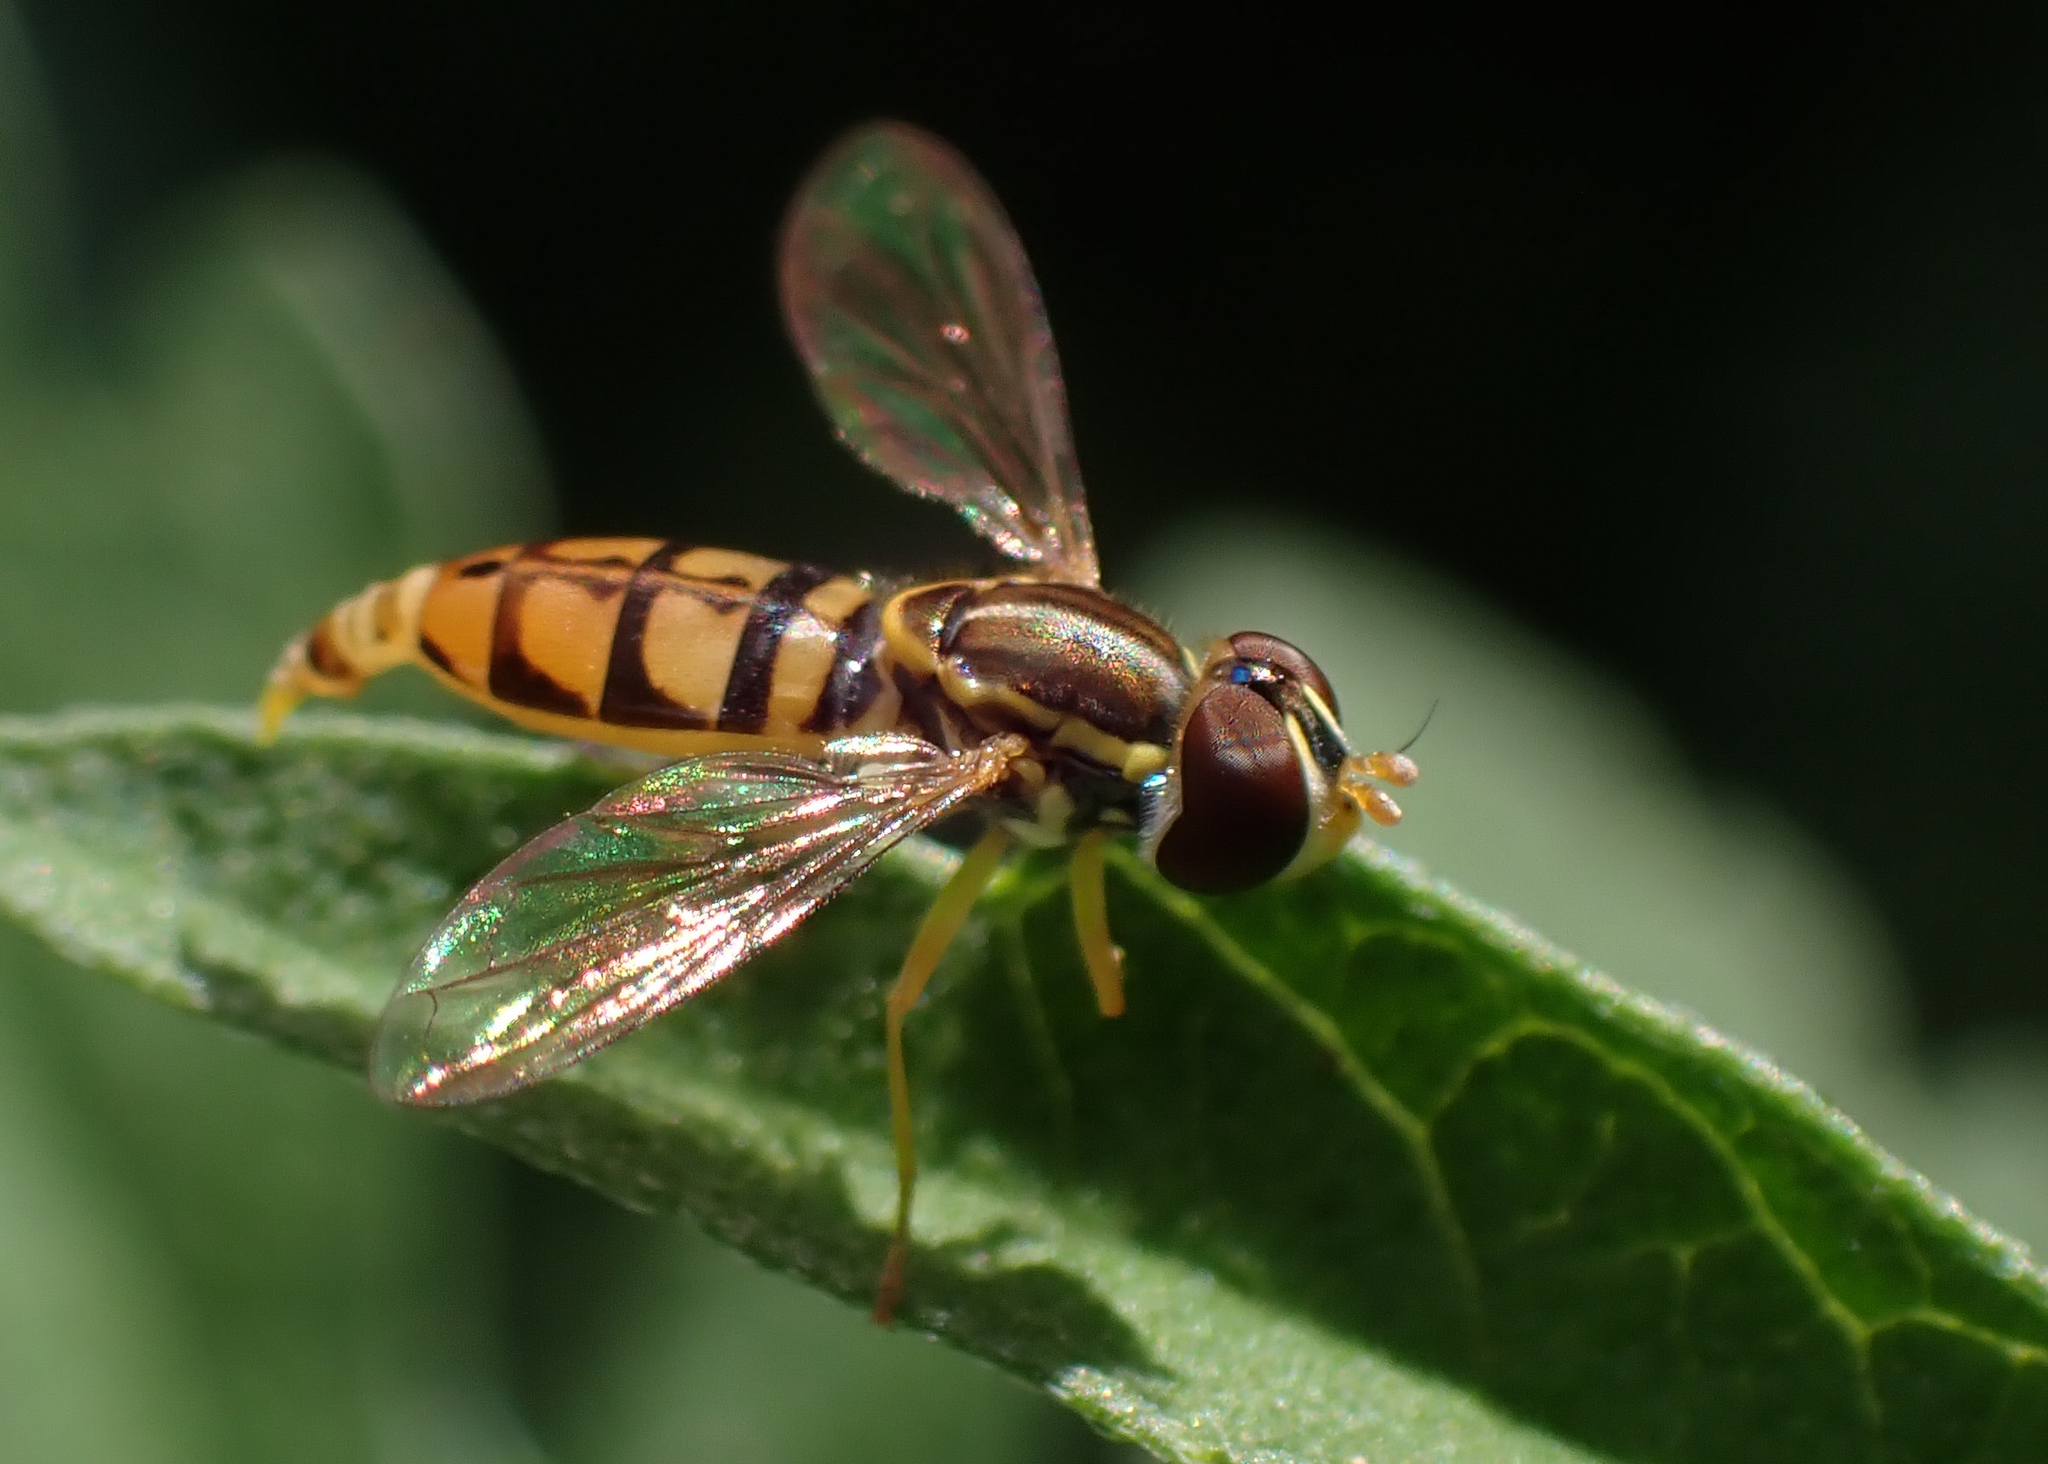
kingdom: Animalia
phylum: Arthropoda
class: Insecta
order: Diptera
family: Syrphidae
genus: Toxomerus
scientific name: Toxomerus floralis
